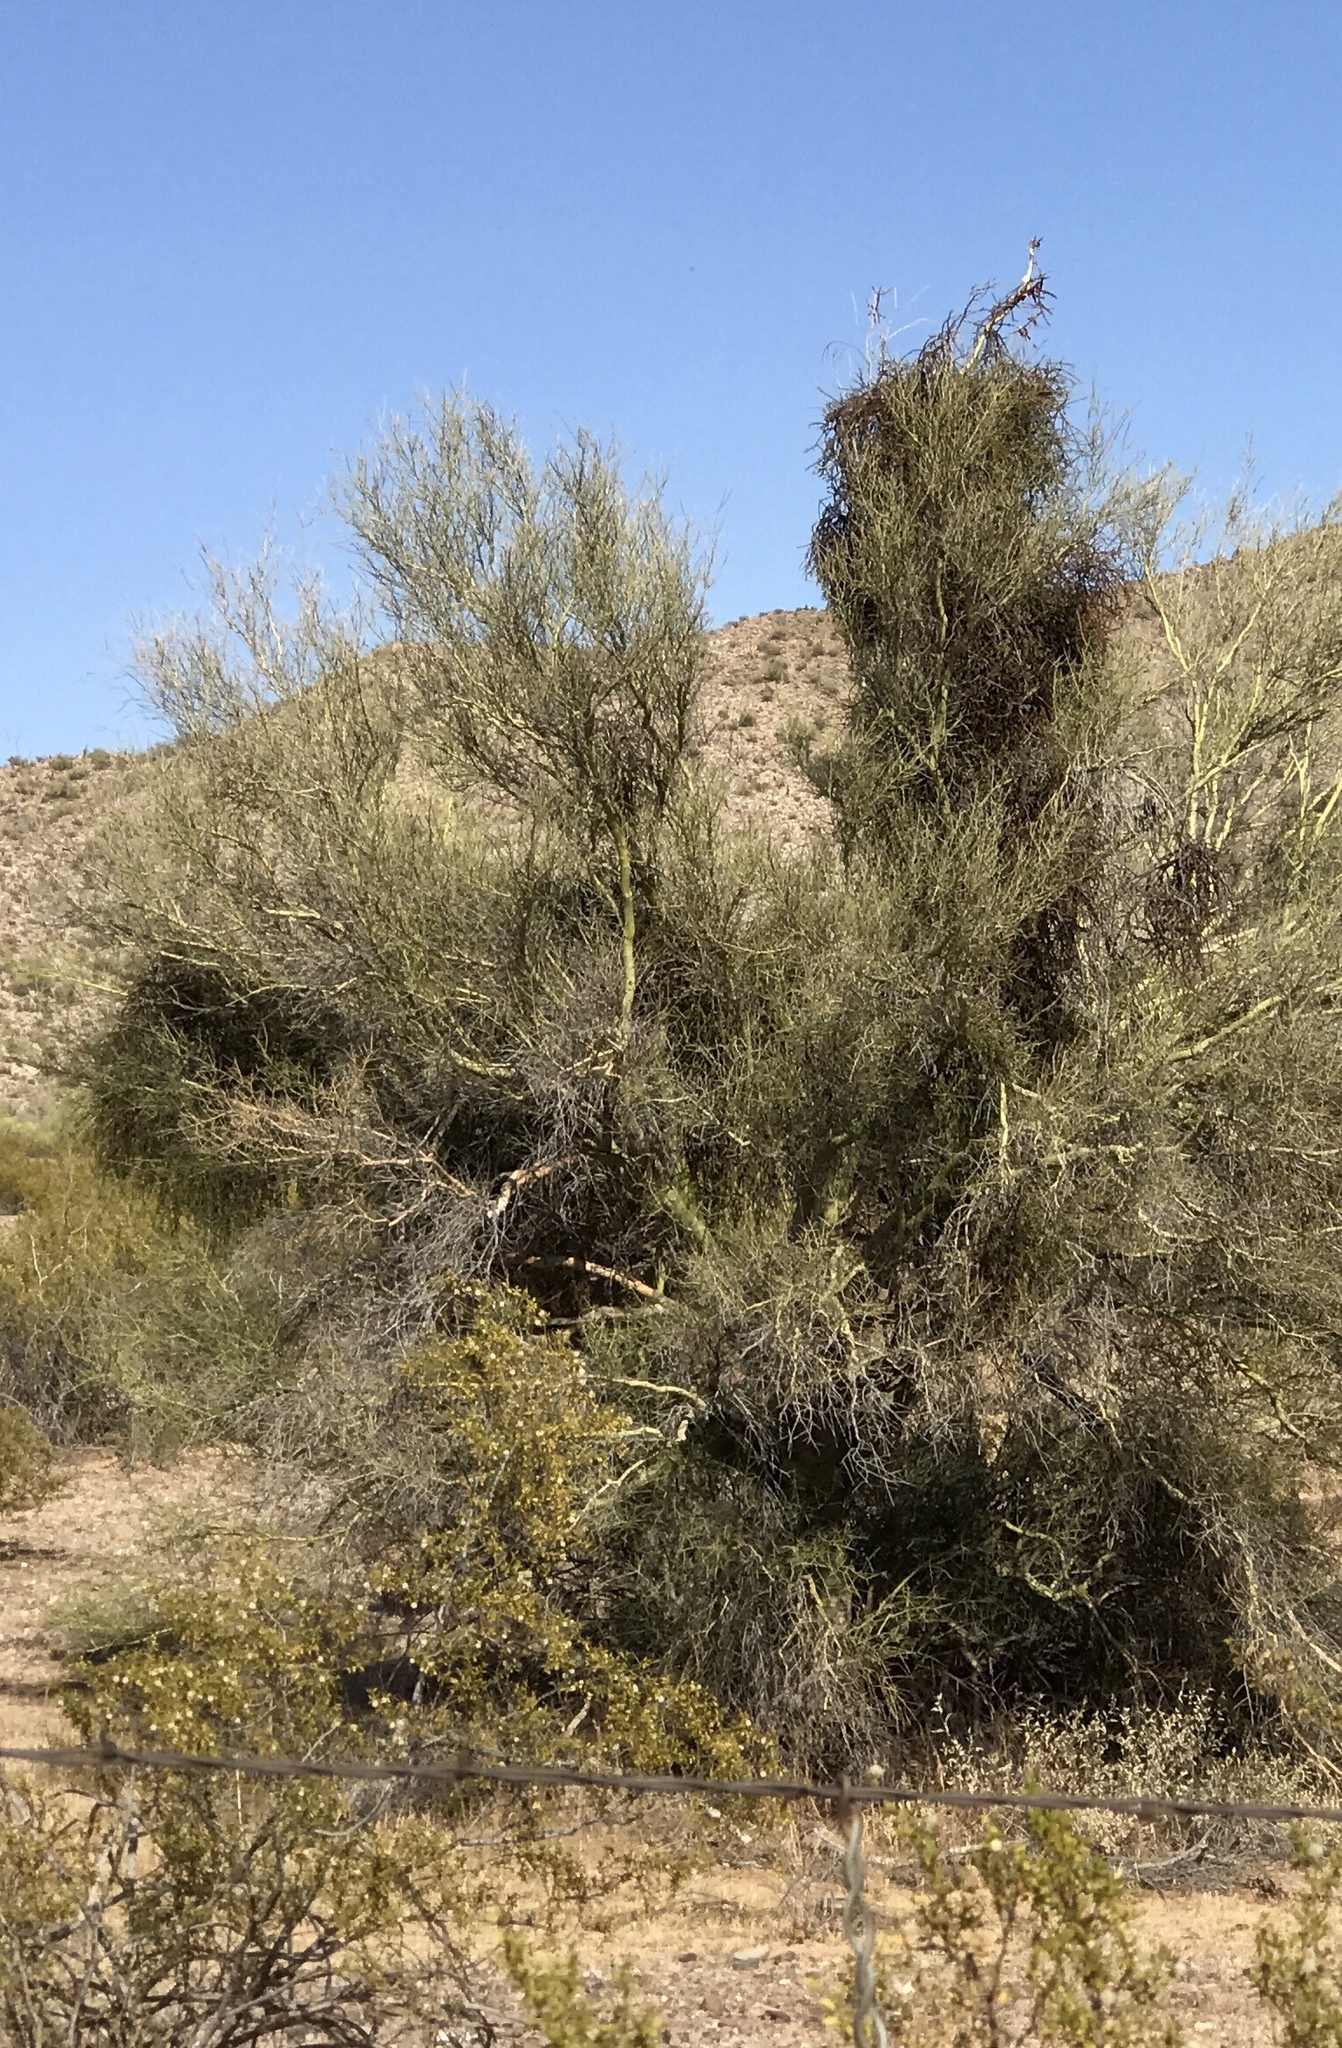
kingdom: Plantae
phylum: Tracheophyta
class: Magnoliopsida
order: Santalales
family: Viscaceae
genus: Phoradendron
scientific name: Phoradendron californicum
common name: Acacia mistletoe
